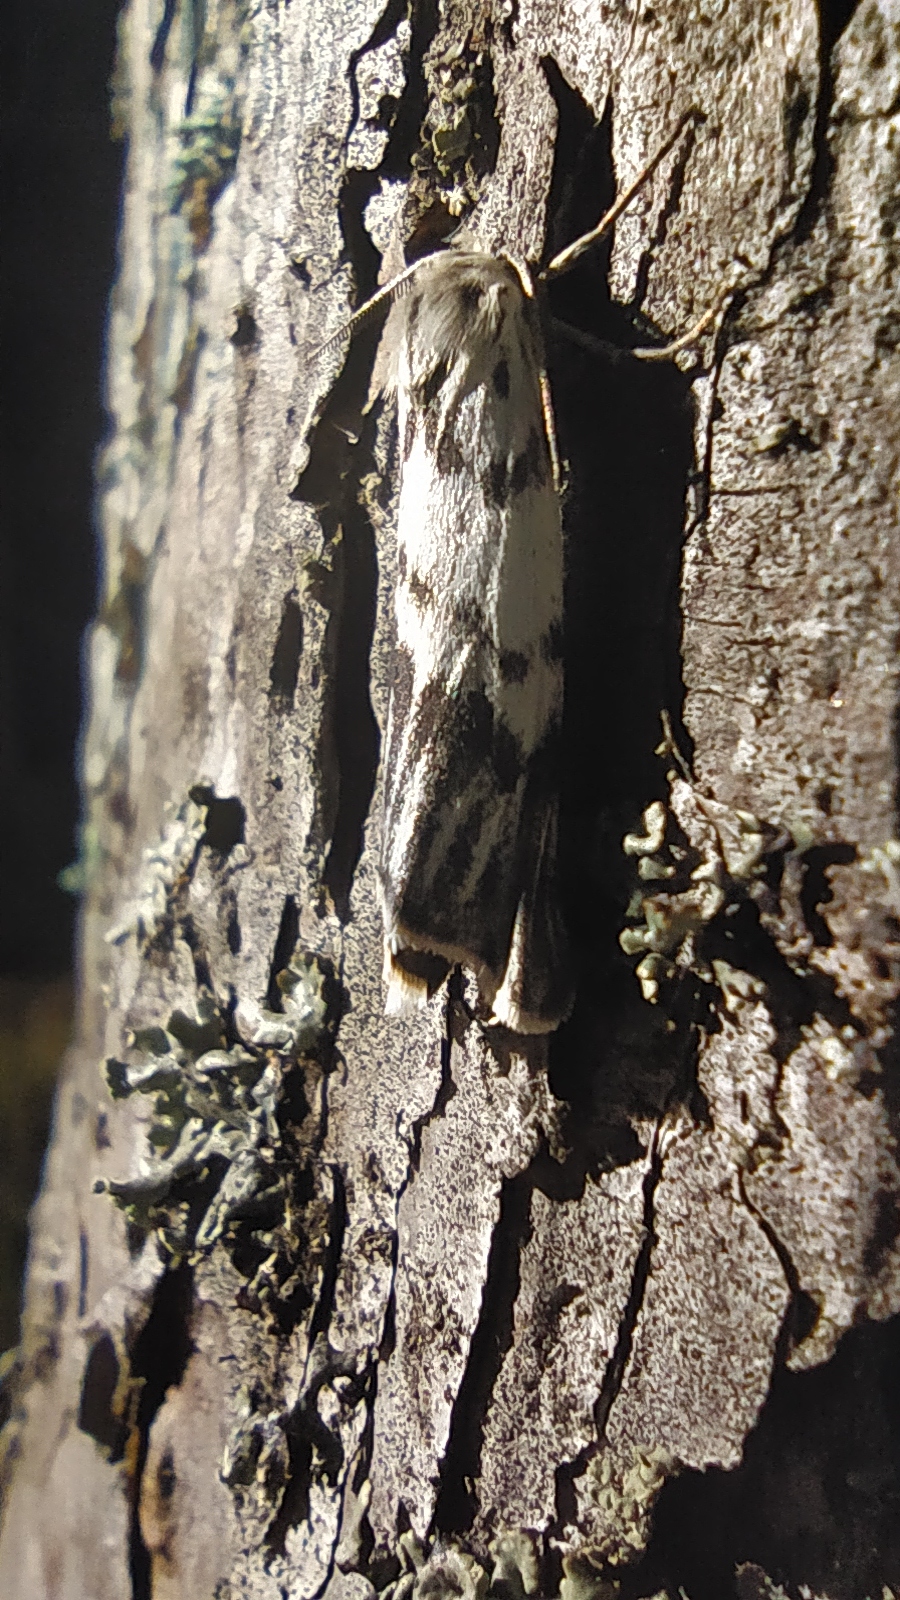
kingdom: Animalia
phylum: Arthropoda
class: Insecta
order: Lepidoptera
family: Erebidae
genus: Coscinia
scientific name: Coscinia cribraria
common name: Speckled footman
